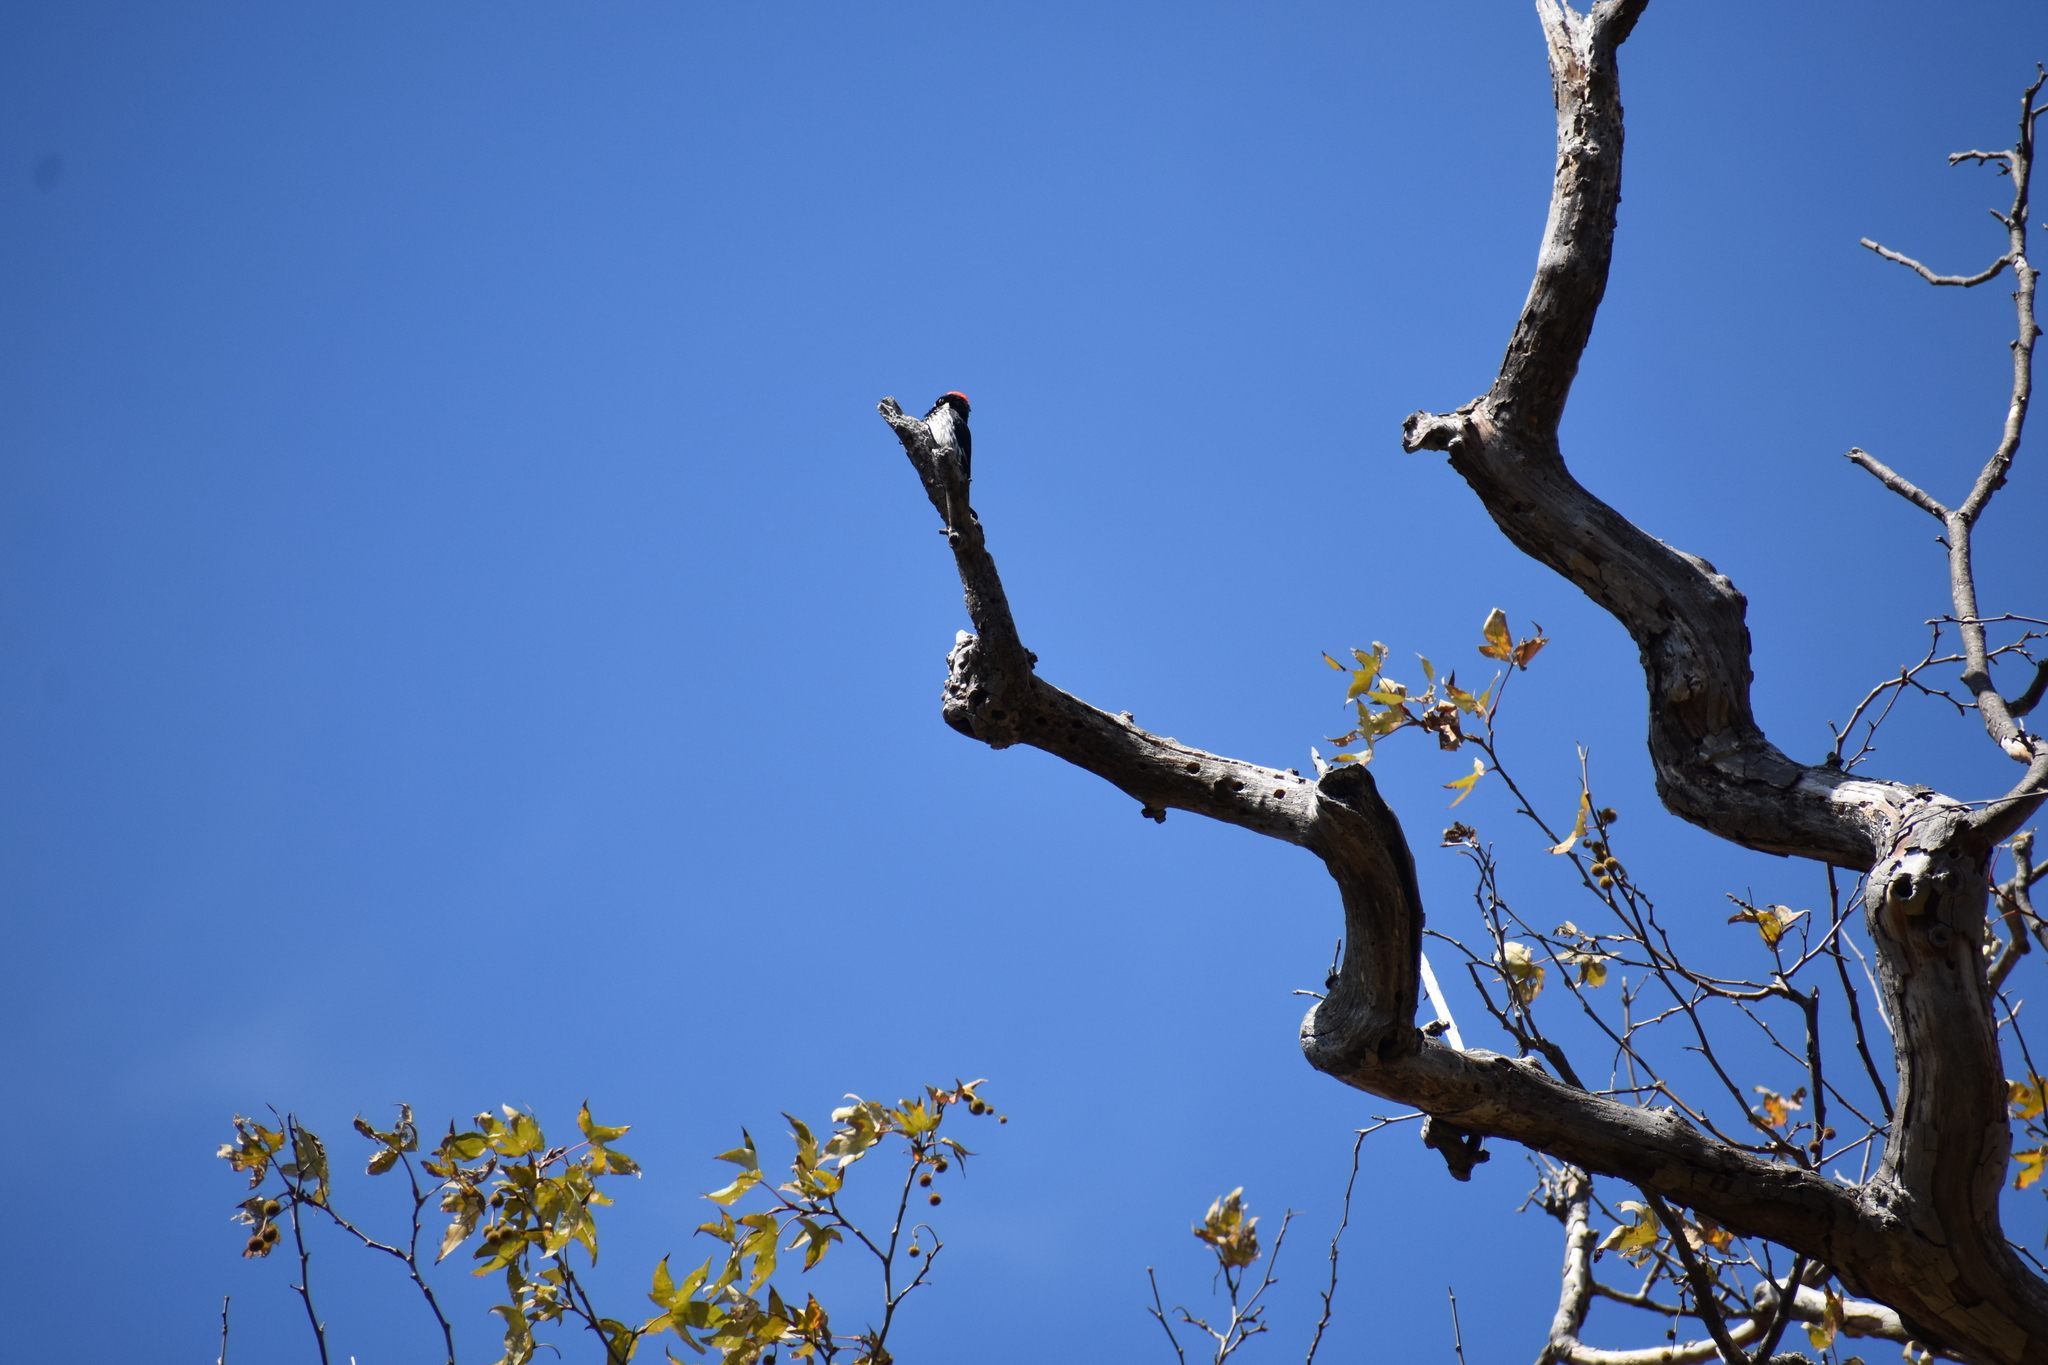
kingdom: Animalia
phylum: Chordata
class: Aves
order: Piciformes
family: Picidae
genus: Melanerpes
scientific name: Melanerpes formicivorus
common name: Acorn woodpecker
